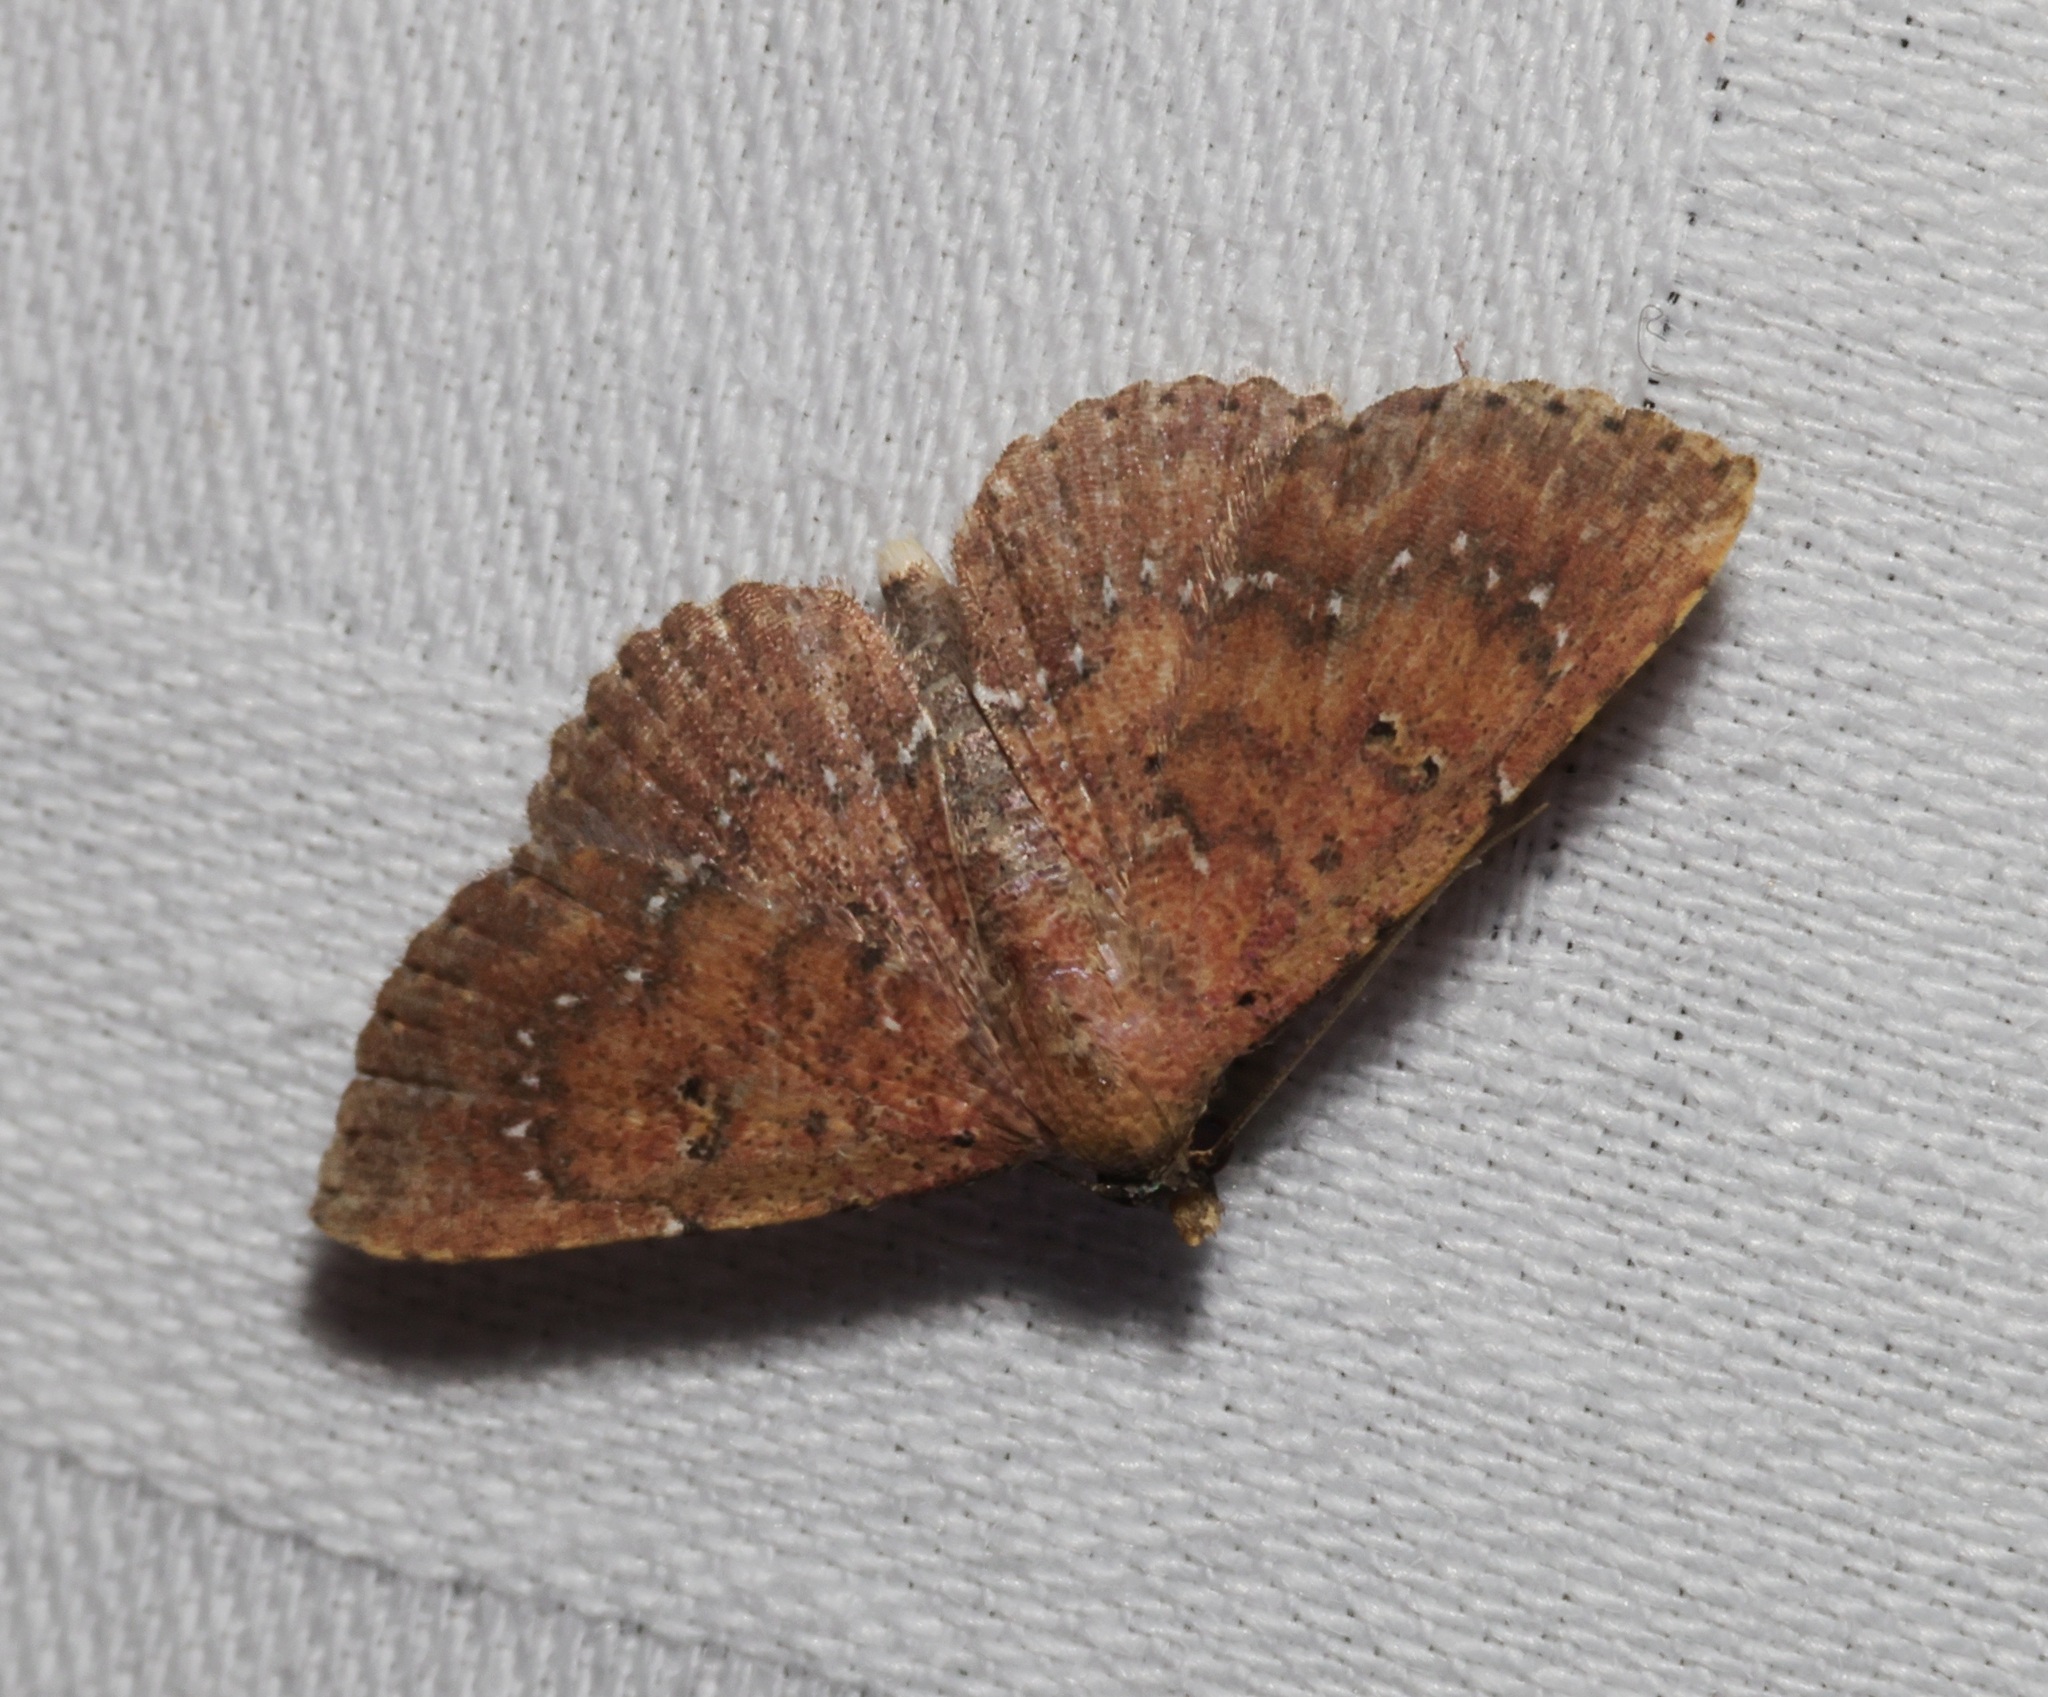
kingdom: Animalia
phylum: Arthropoda
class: Insecta
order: Lepidoptera
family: Noctuidae
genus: Cerynea
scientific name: Cerynea punctilinealis
